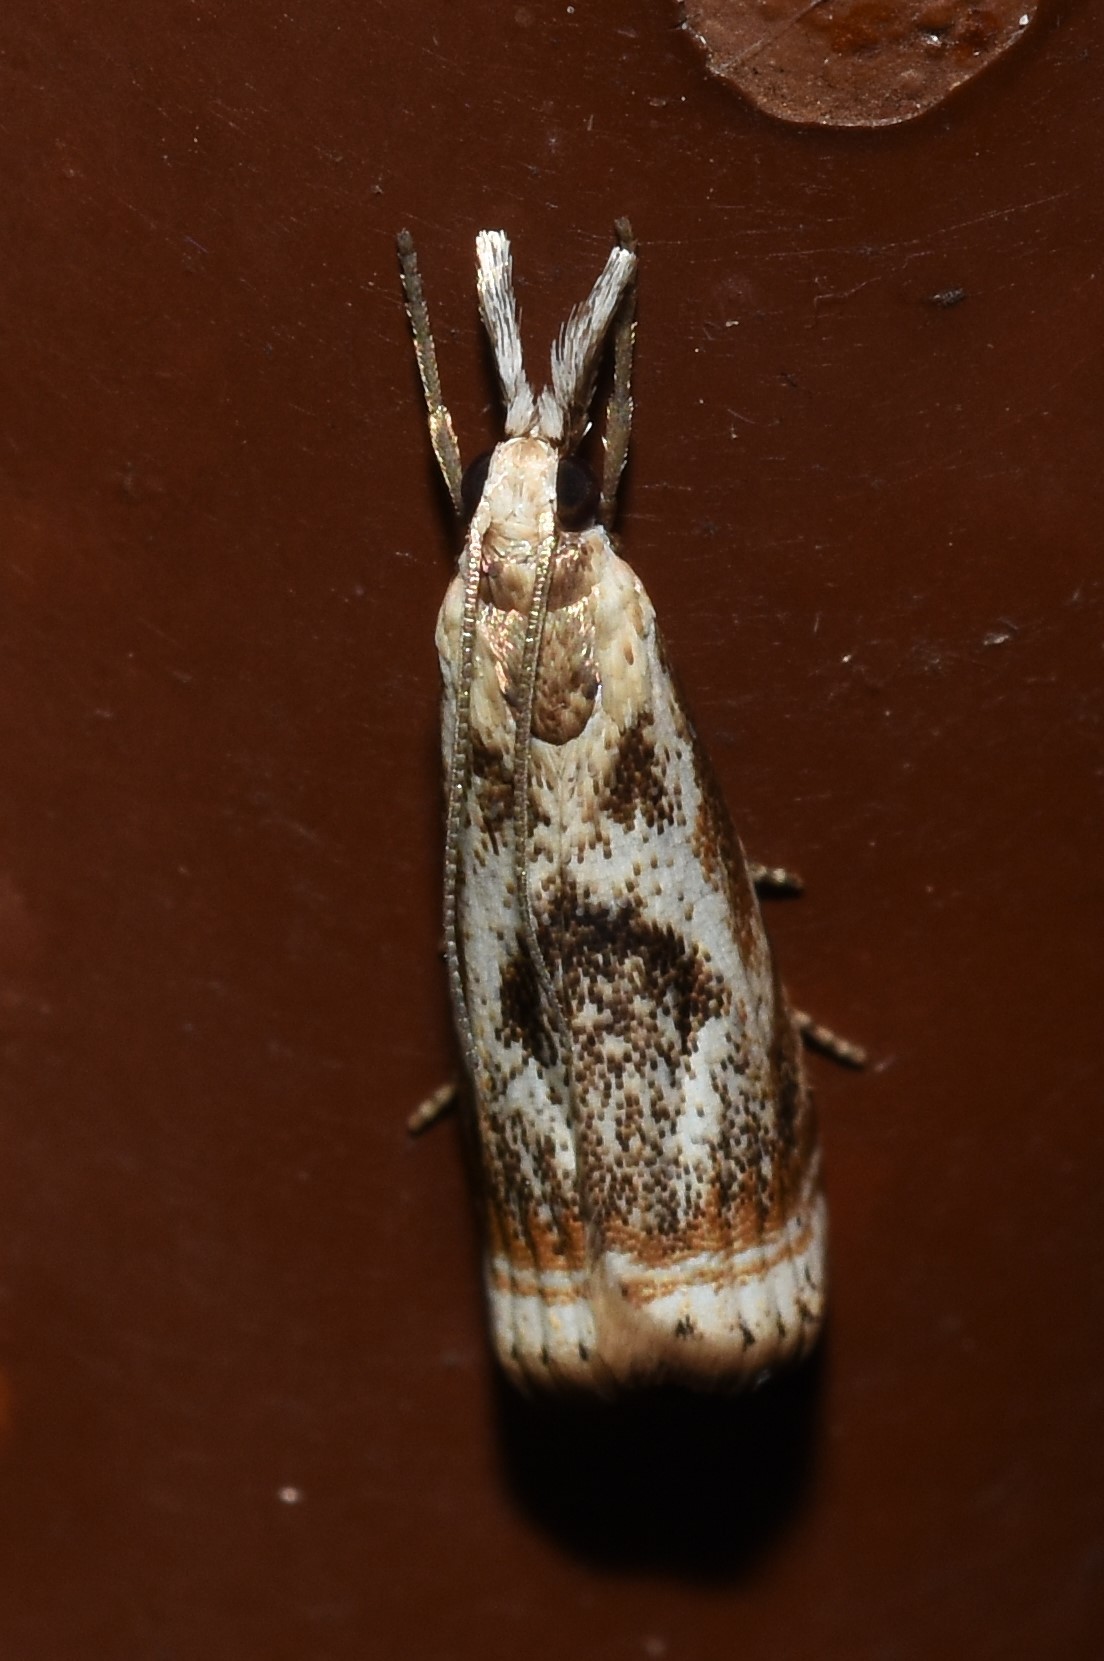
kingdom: Animalia
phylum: Arthropoda
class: Insecta
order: Lepidoptera
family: Crambidae
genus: Microcrambus
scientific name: Microcrambus elegans
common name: Elegant grass-veneer
